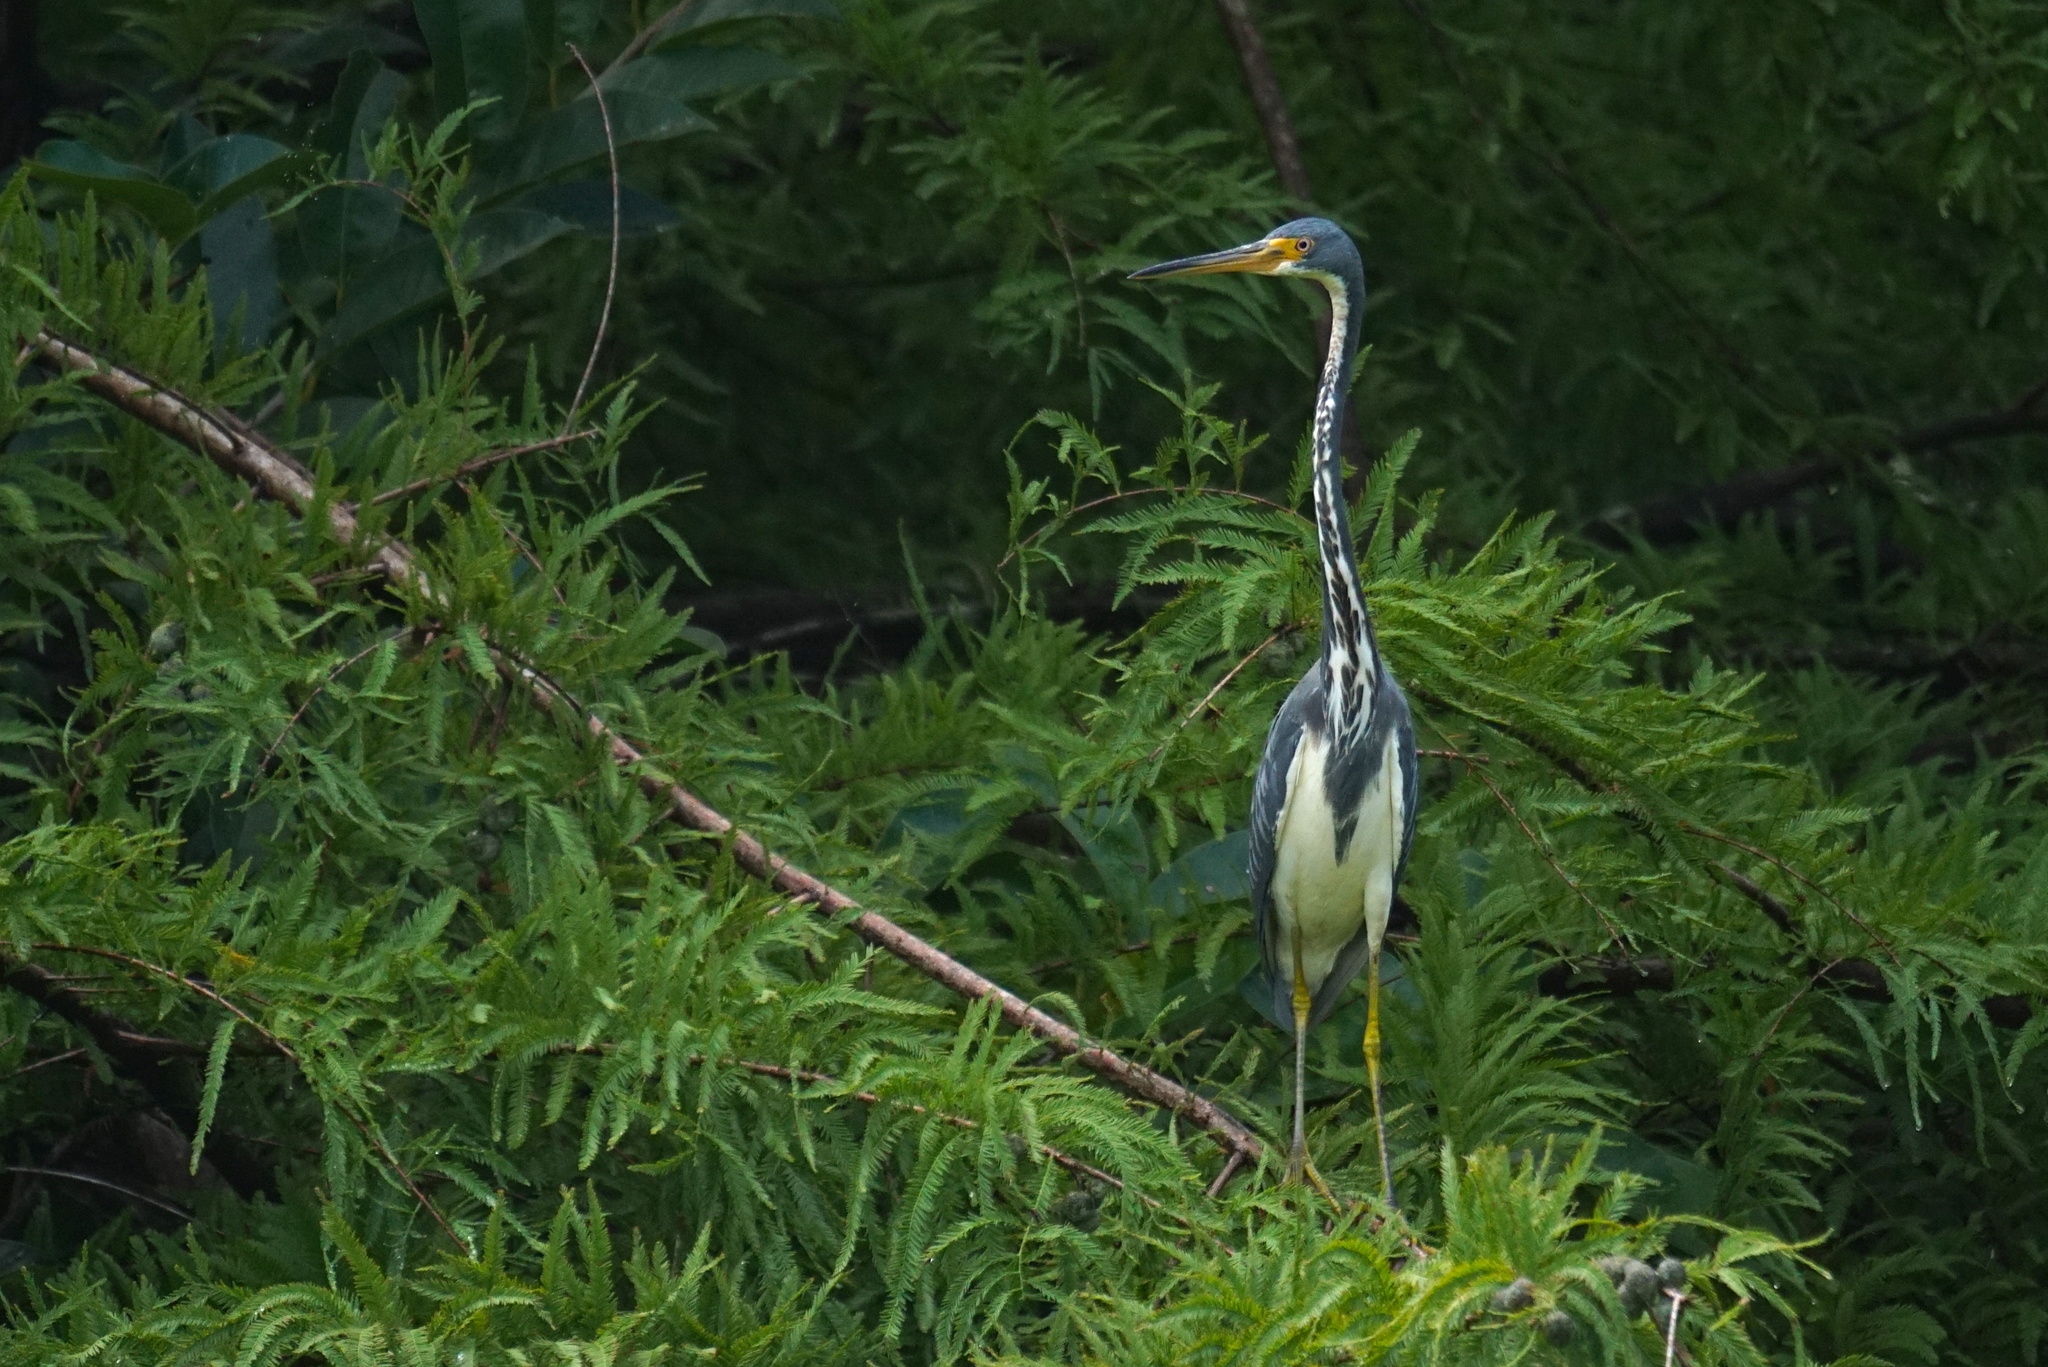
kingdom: Animalia
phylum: Chordata
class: Aves
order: Pelecaniformes
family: Ardeidae
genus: Egretta
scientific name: Egretta tricolor
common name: Tricolored heron
